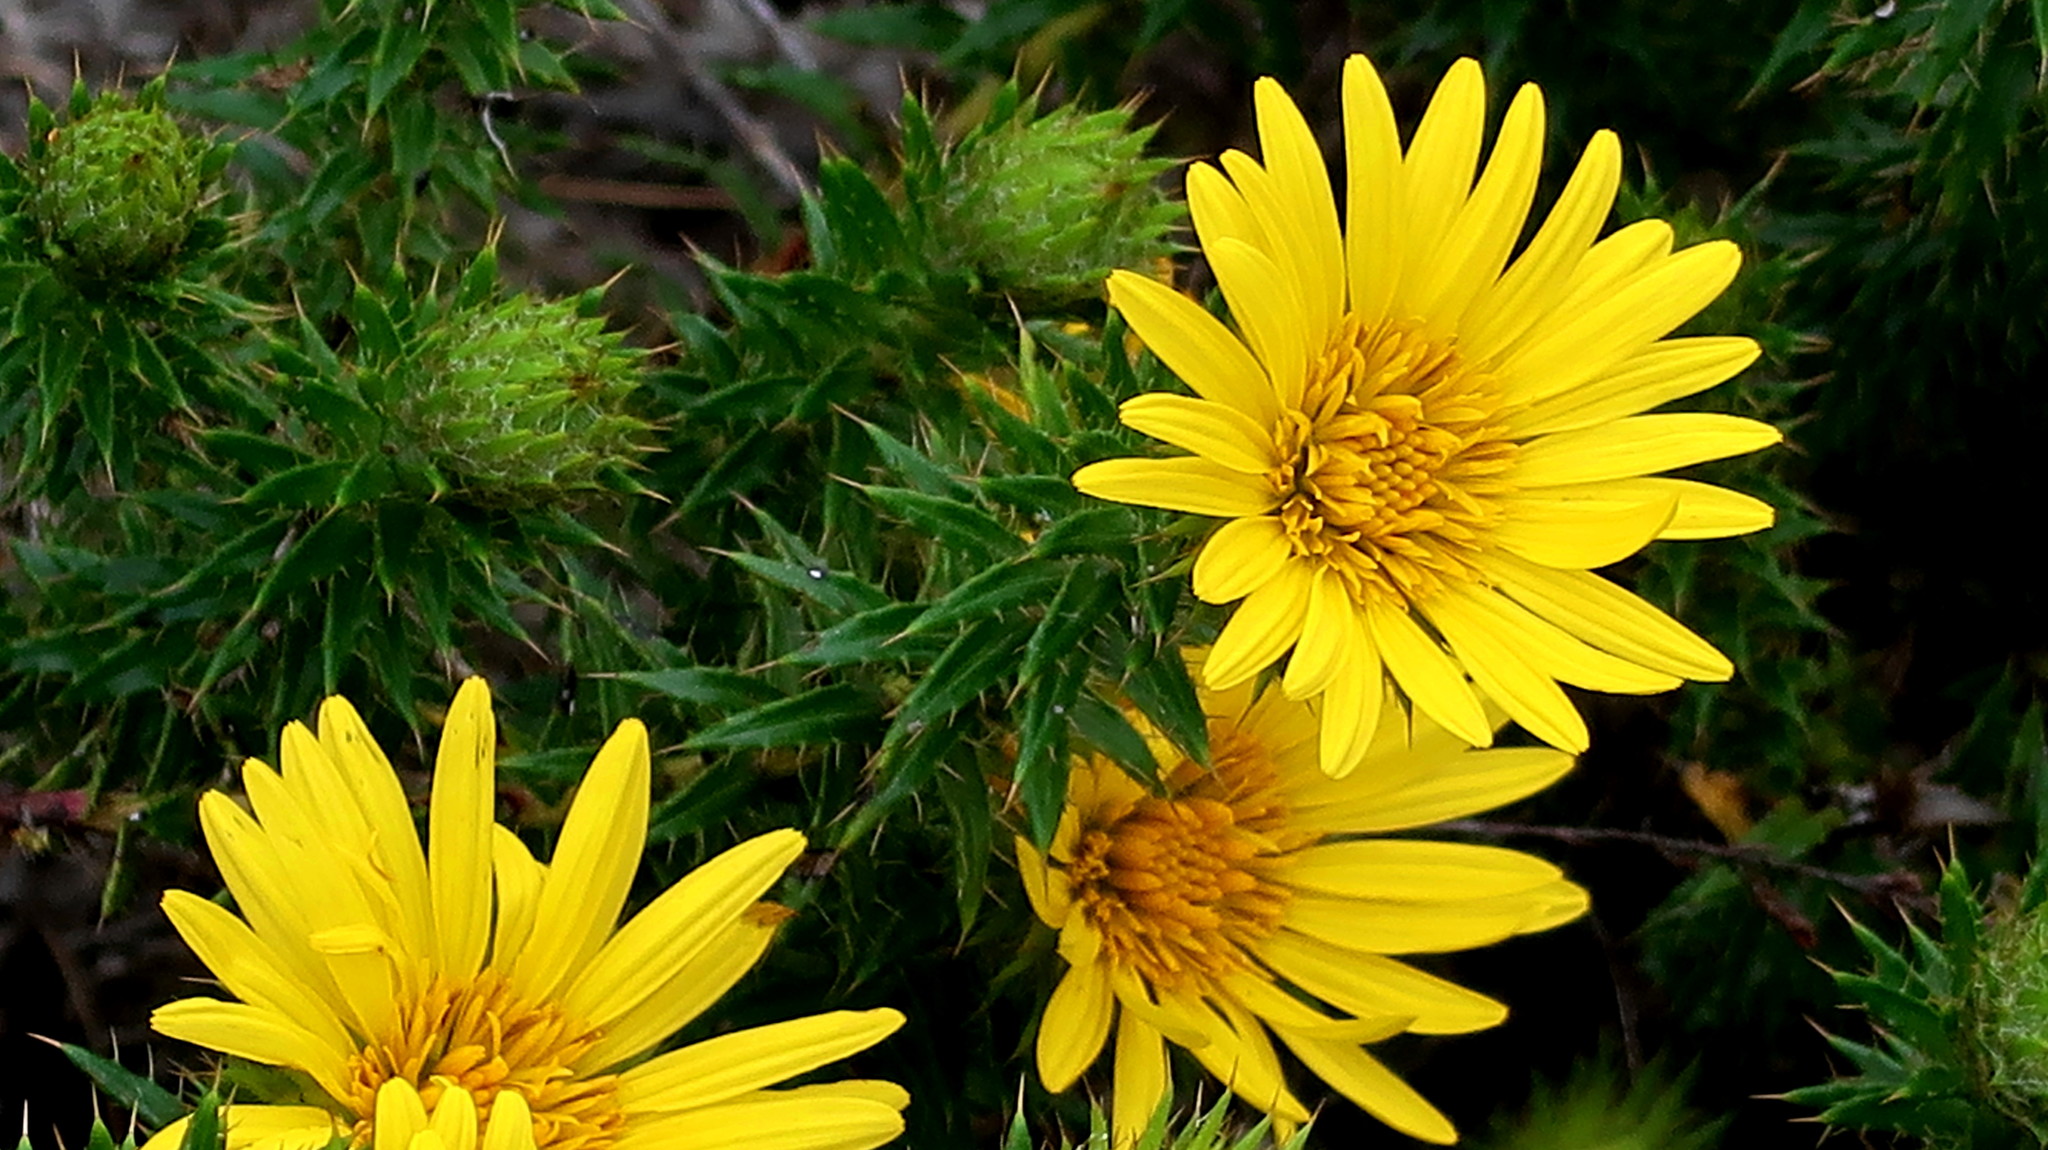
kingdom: Plantae
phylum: Tracheophyta
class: Magnoliopsida
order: Asterales
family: Asteraceae
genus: Cullumia
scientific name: Cullumia carlinoides
